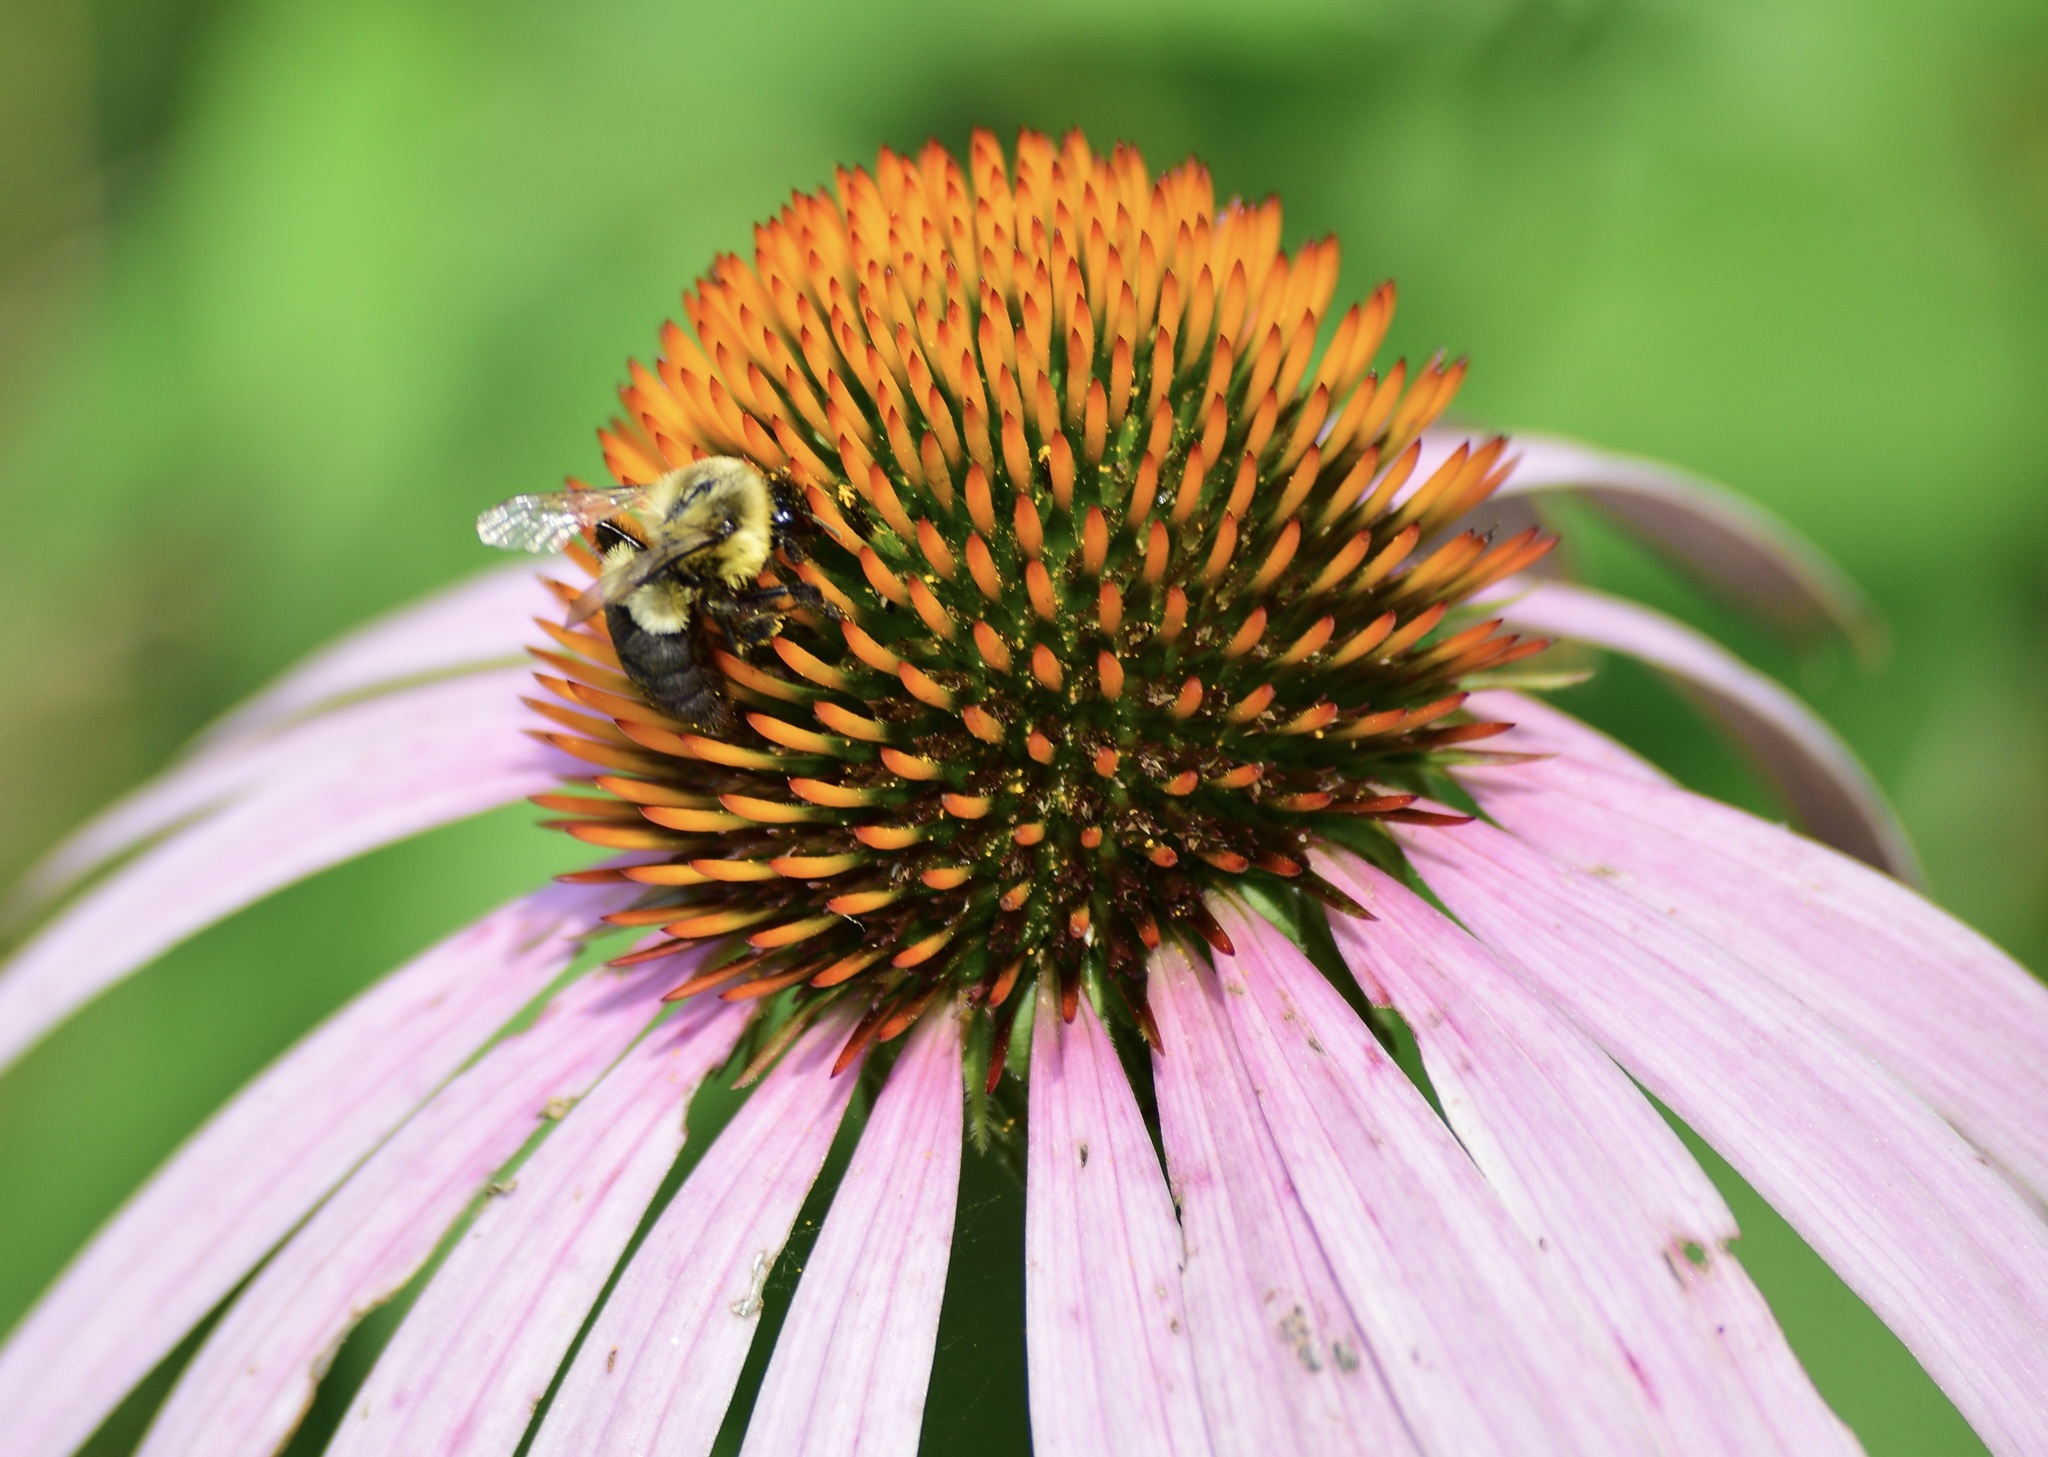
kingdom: Animalia
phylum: Arthropoda
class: Insecta
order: Hymenoptera
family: Apidae
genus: Bombus
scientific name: Bombus impatiens
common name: Common eastern bumble bee
